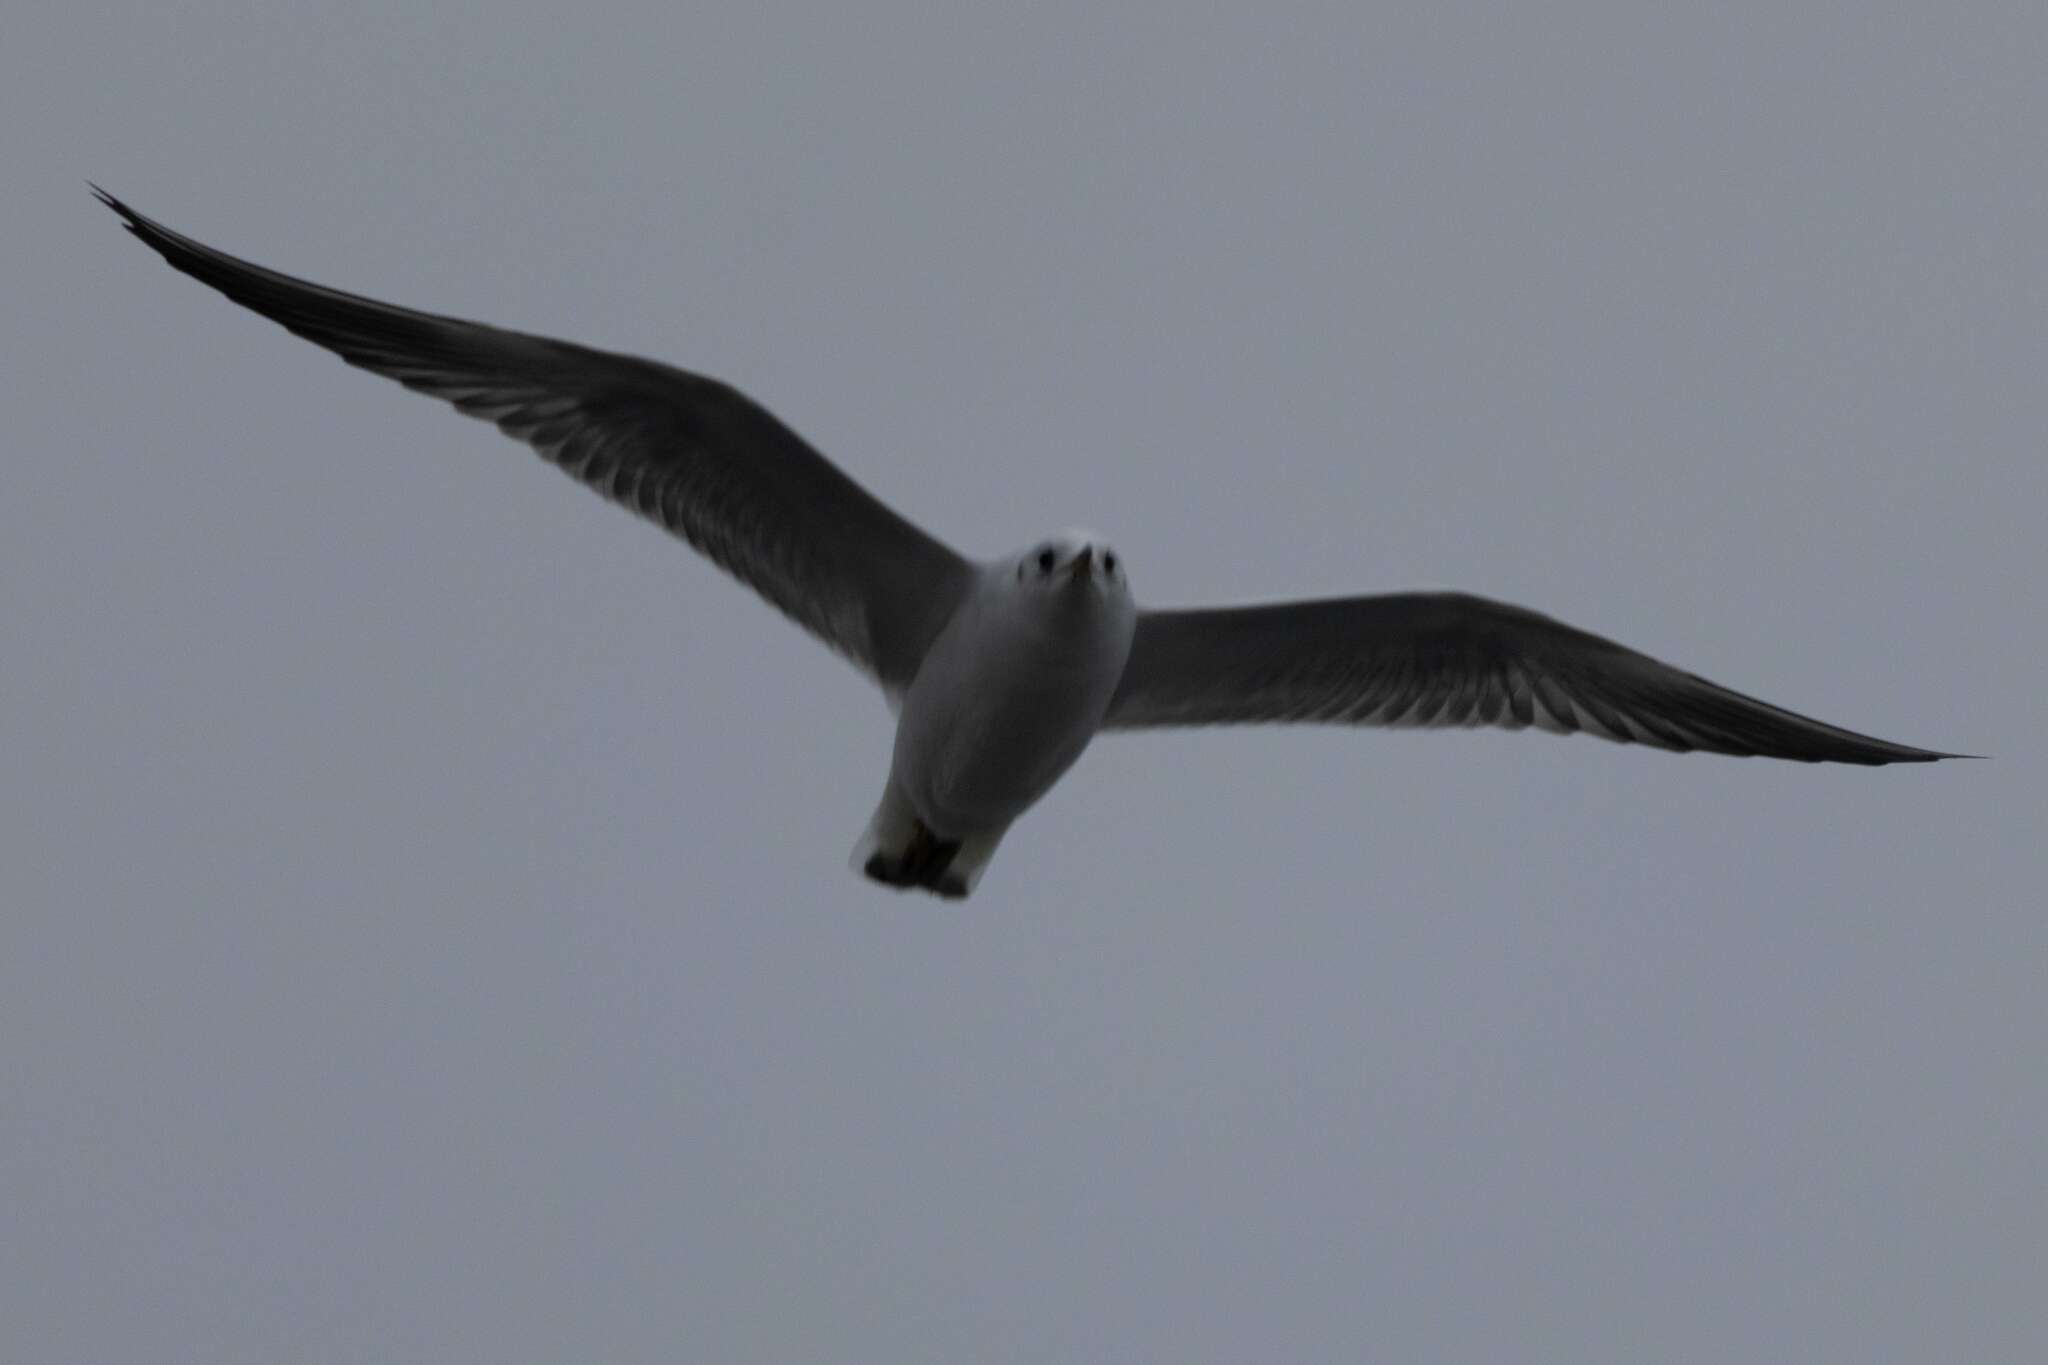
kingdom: Animalia
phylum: Chordata
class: Aves
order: Charadriiformes
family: Laridae
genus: Chroicocephalus
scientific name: Chroicocephalus ridibundus
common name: Black-headed gull
